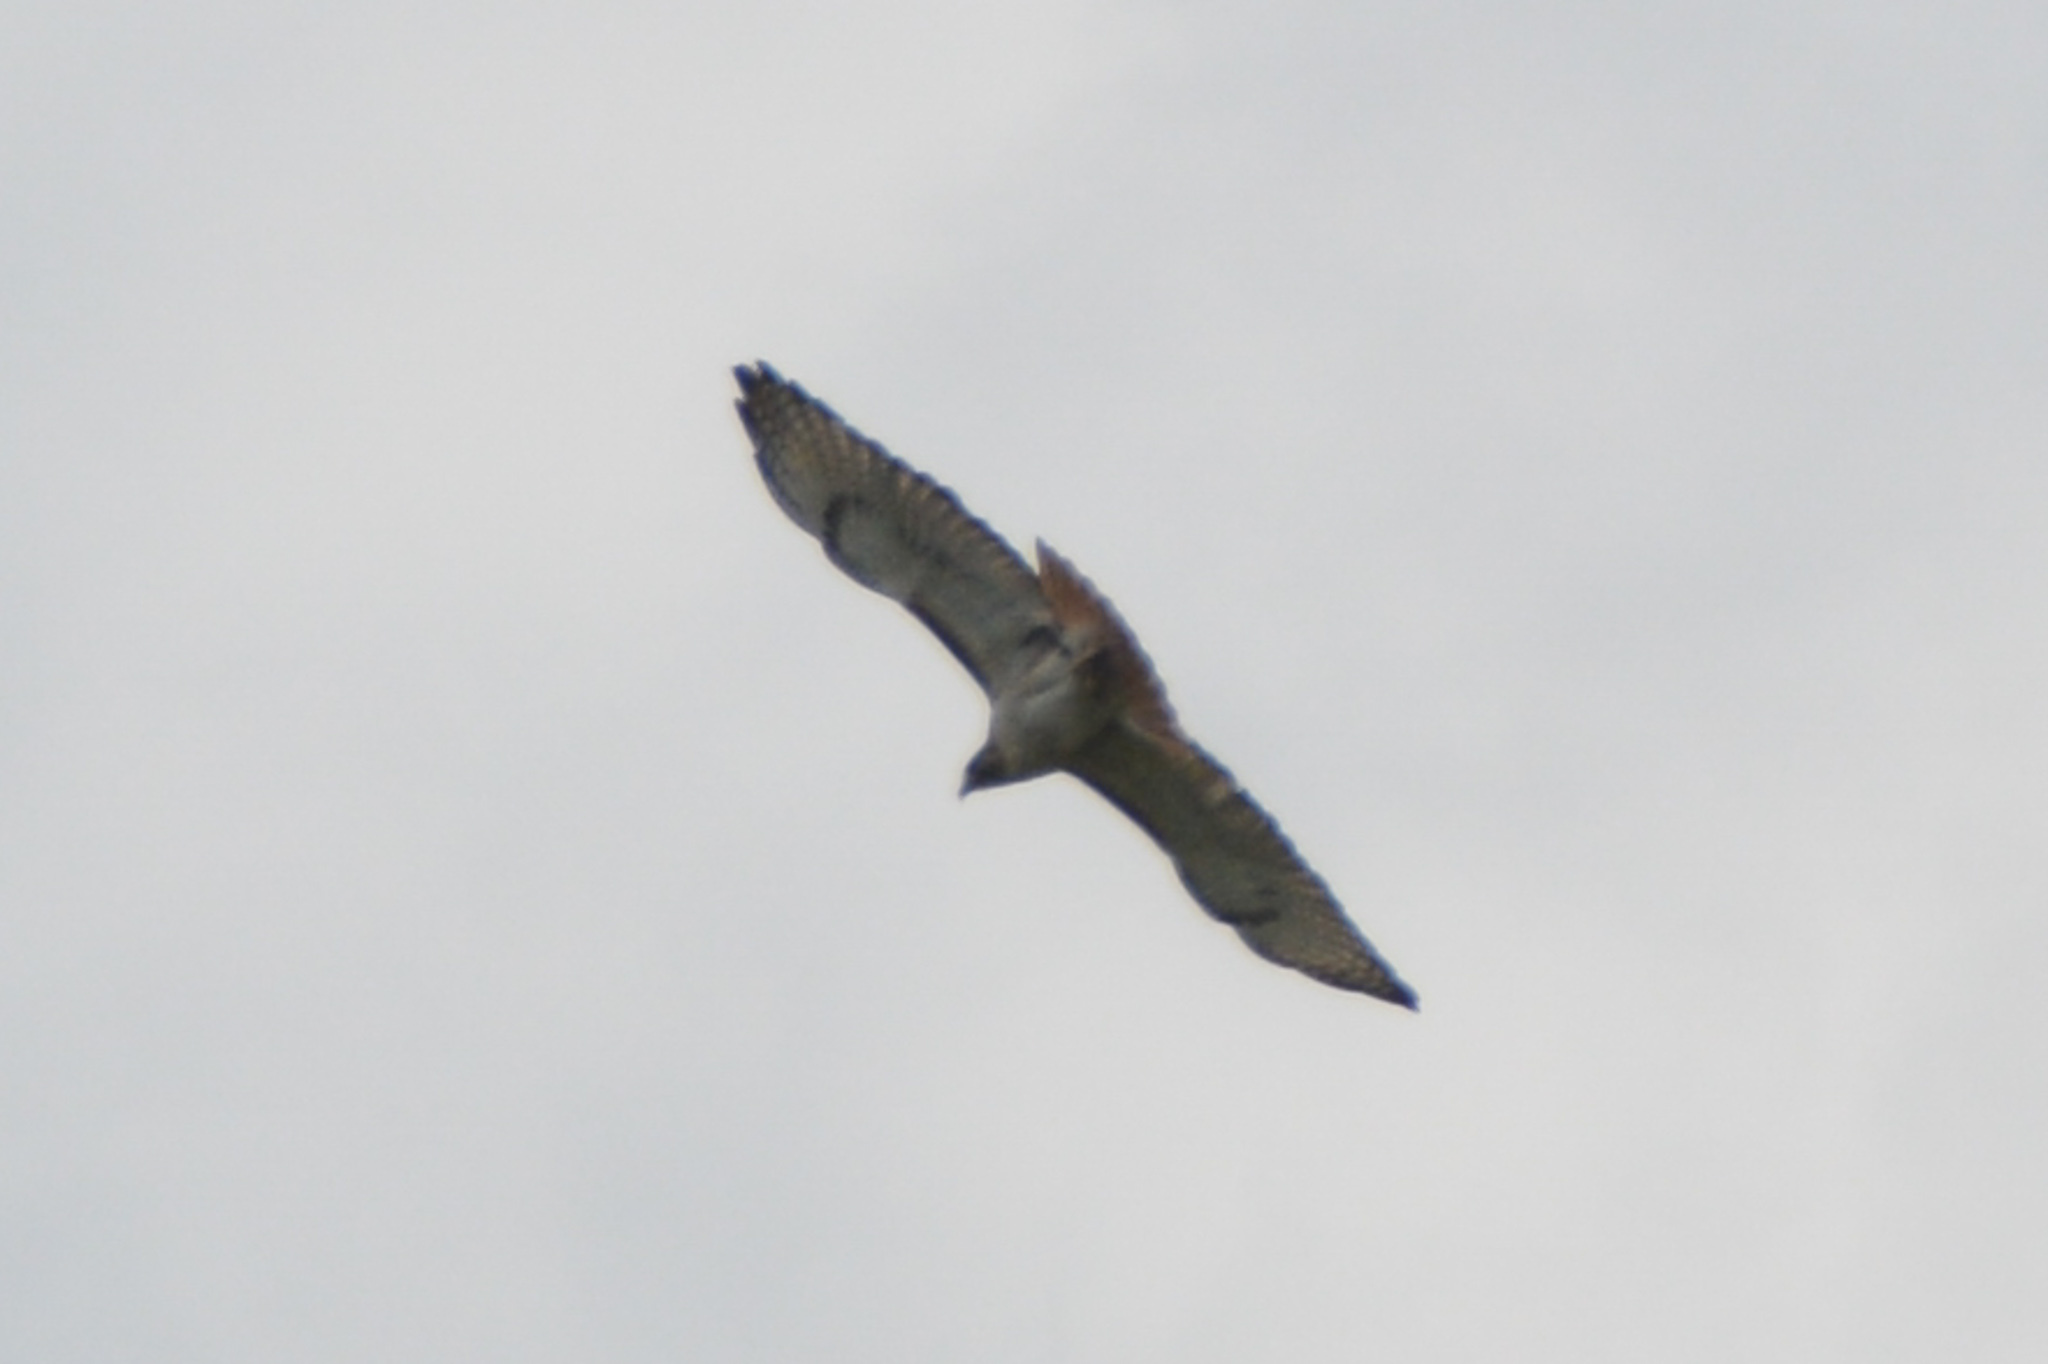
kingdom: Animalia
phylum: Chordata
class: Aves
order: Accipitriformes
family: Accipitridae
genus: Buteo
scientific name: Buteo jamaicensis
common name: Red-tailed hawk
